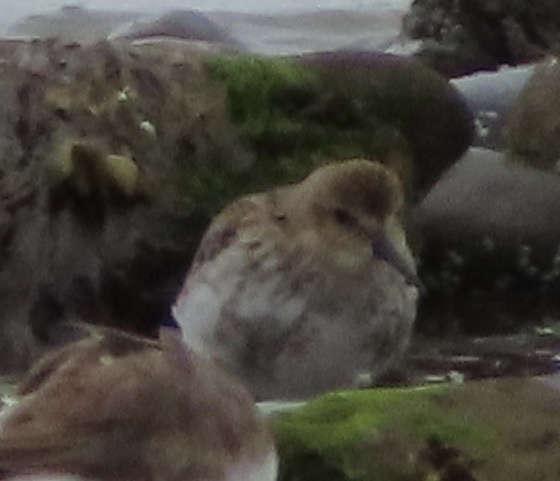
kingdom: Animalia
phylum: Chordata
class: Aves
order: Charadriiformes
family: Scolopacidae
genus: Calidris
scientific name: Calidris alpina
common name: Dunlin
